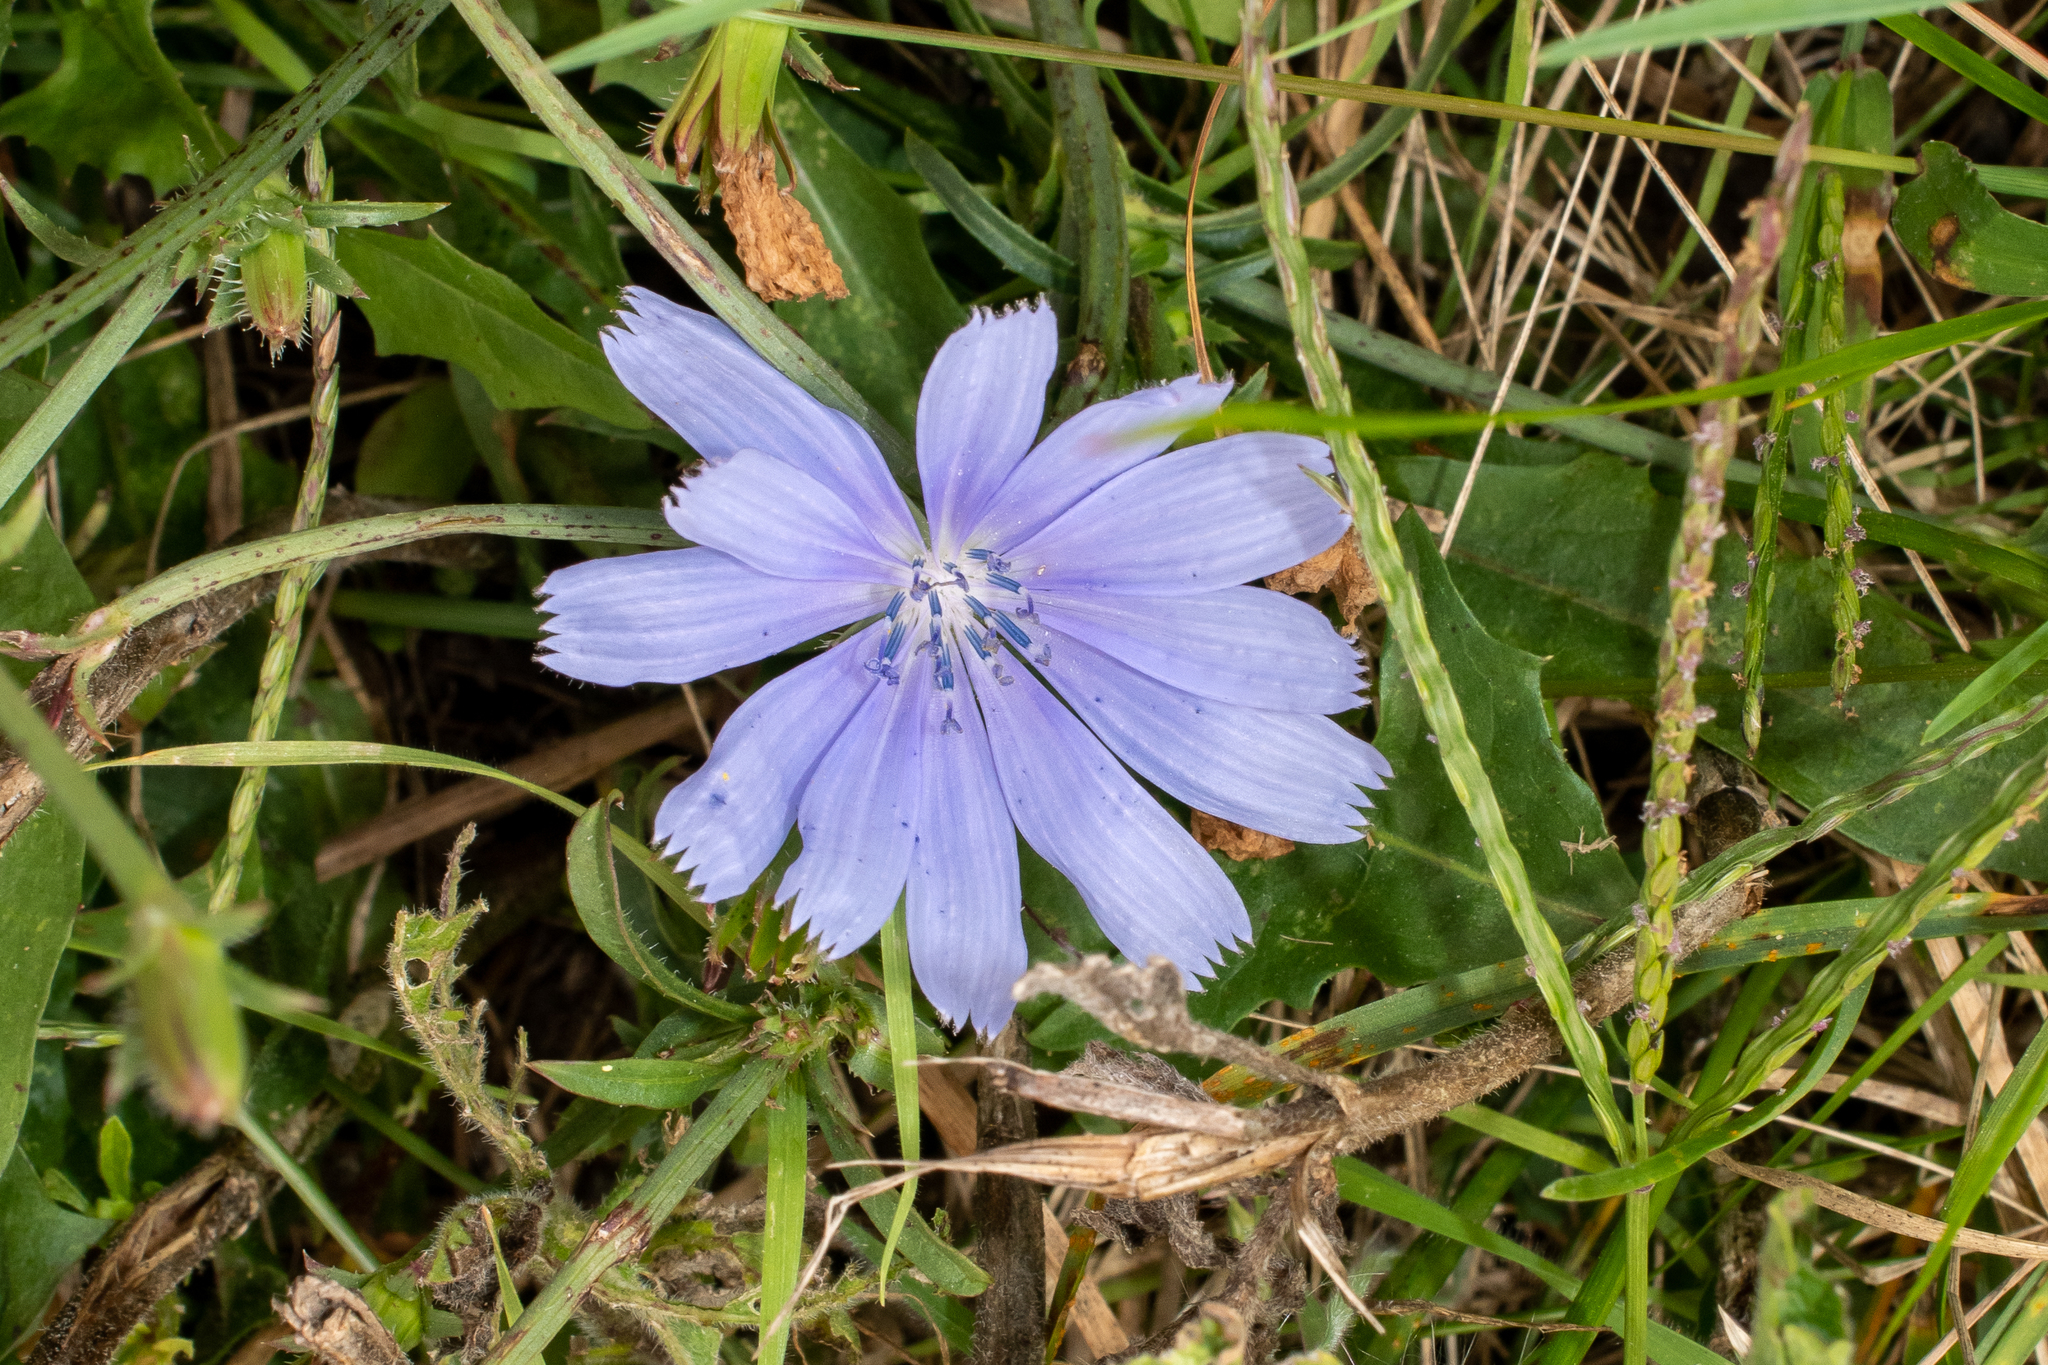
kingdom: Plantae
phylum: Tracheophyta
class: Magnoliopsida
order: Asterales
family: Asteraceae
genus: Cichorium
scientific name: Cichorium intybus
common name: Chicory
